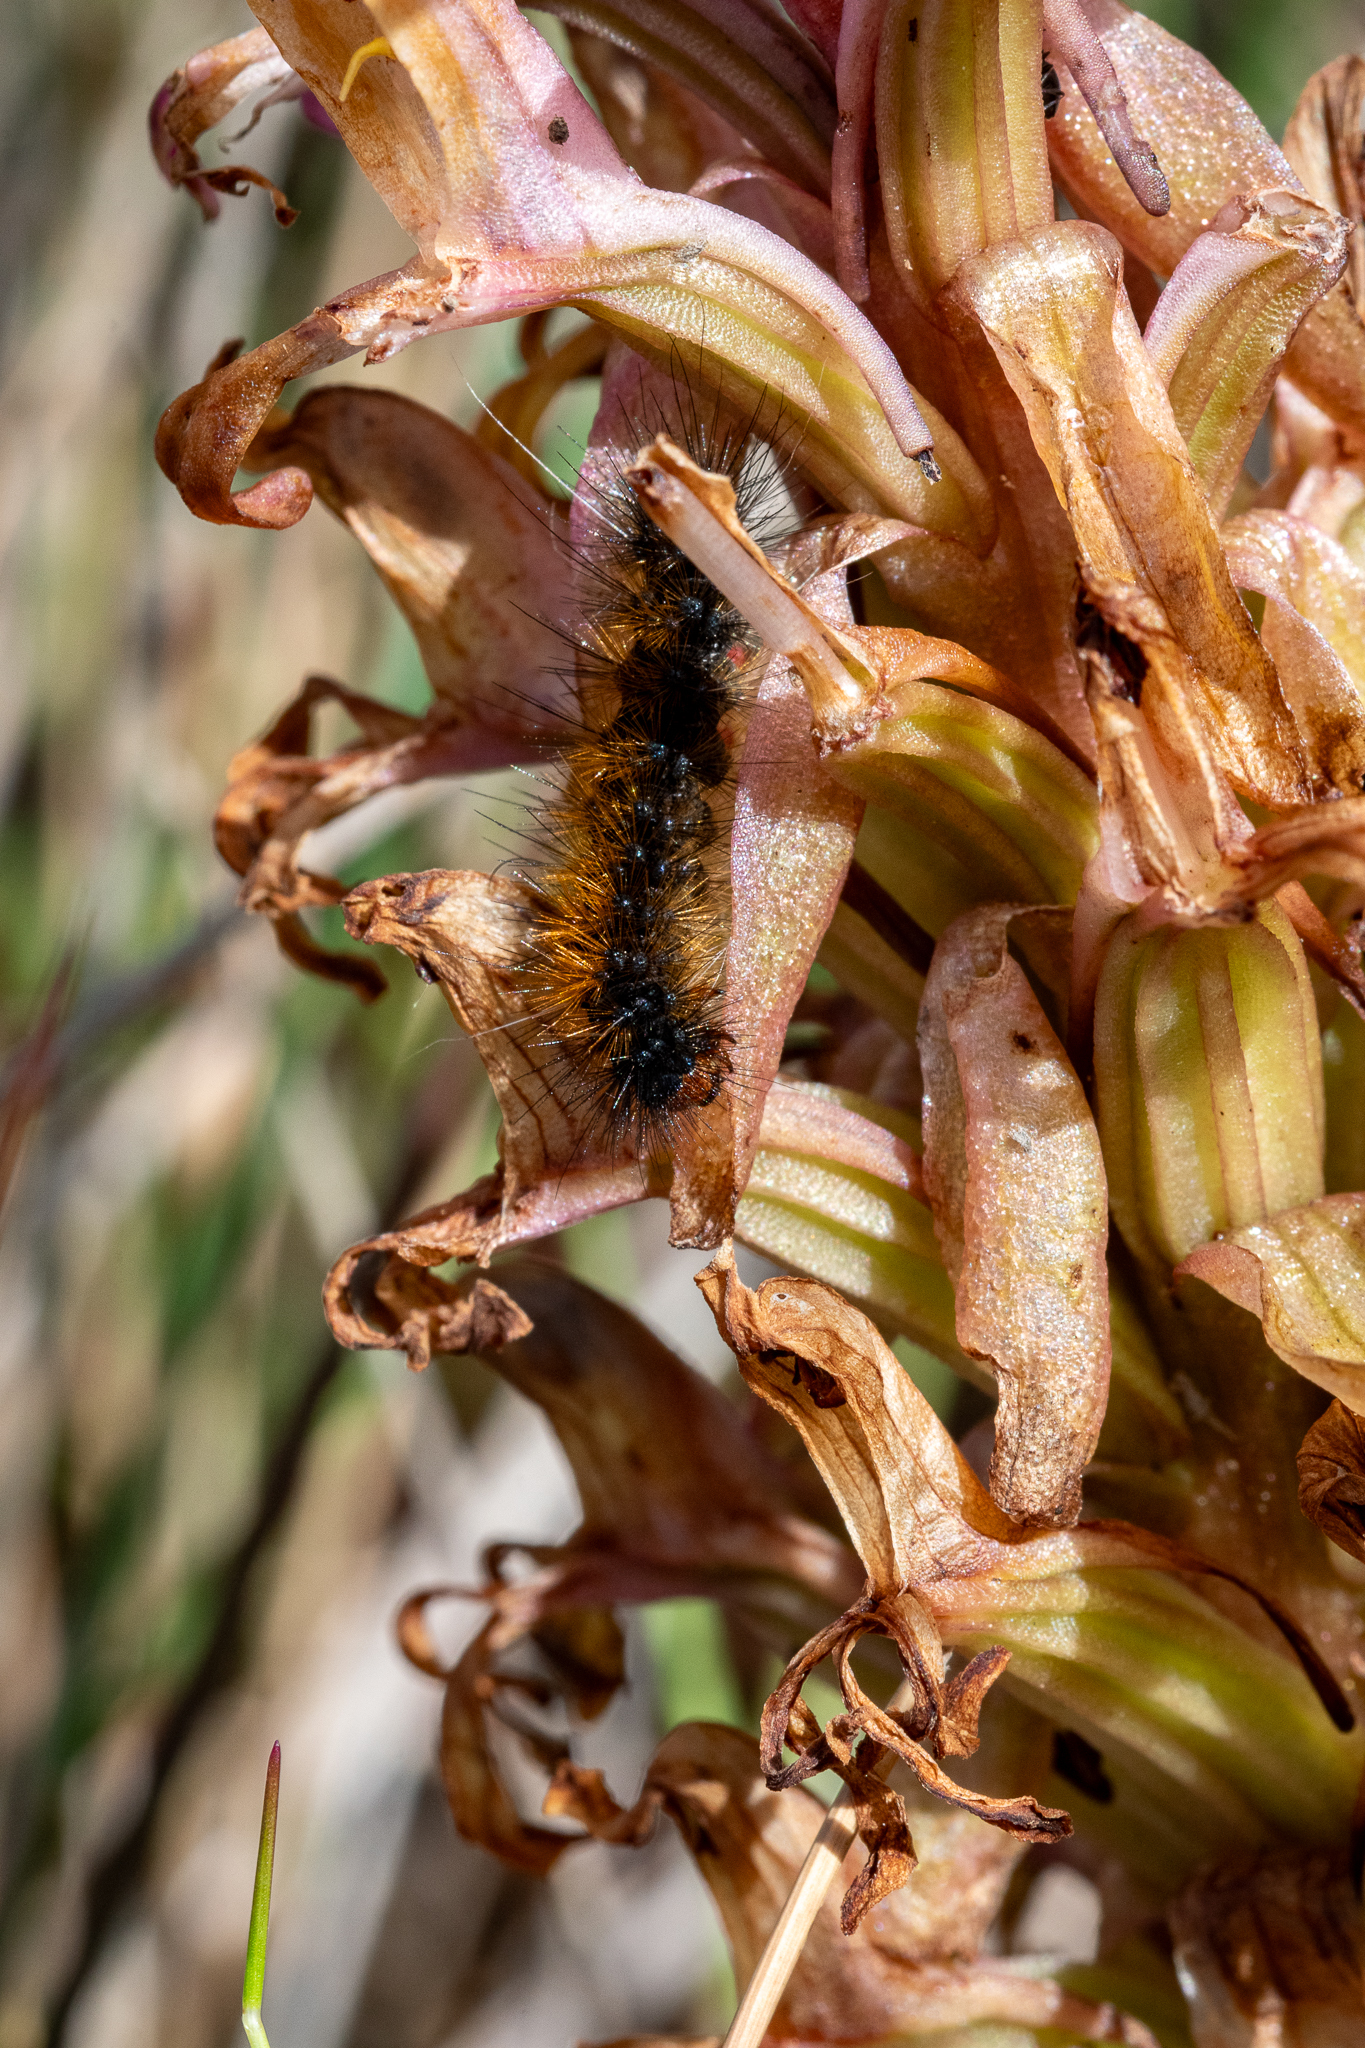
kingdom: Animalia
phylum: Arthropoda
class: Insecta
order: Lepidoptera
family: Erebidae
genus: Rhodogastria
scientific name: Rhodogastria amasis
